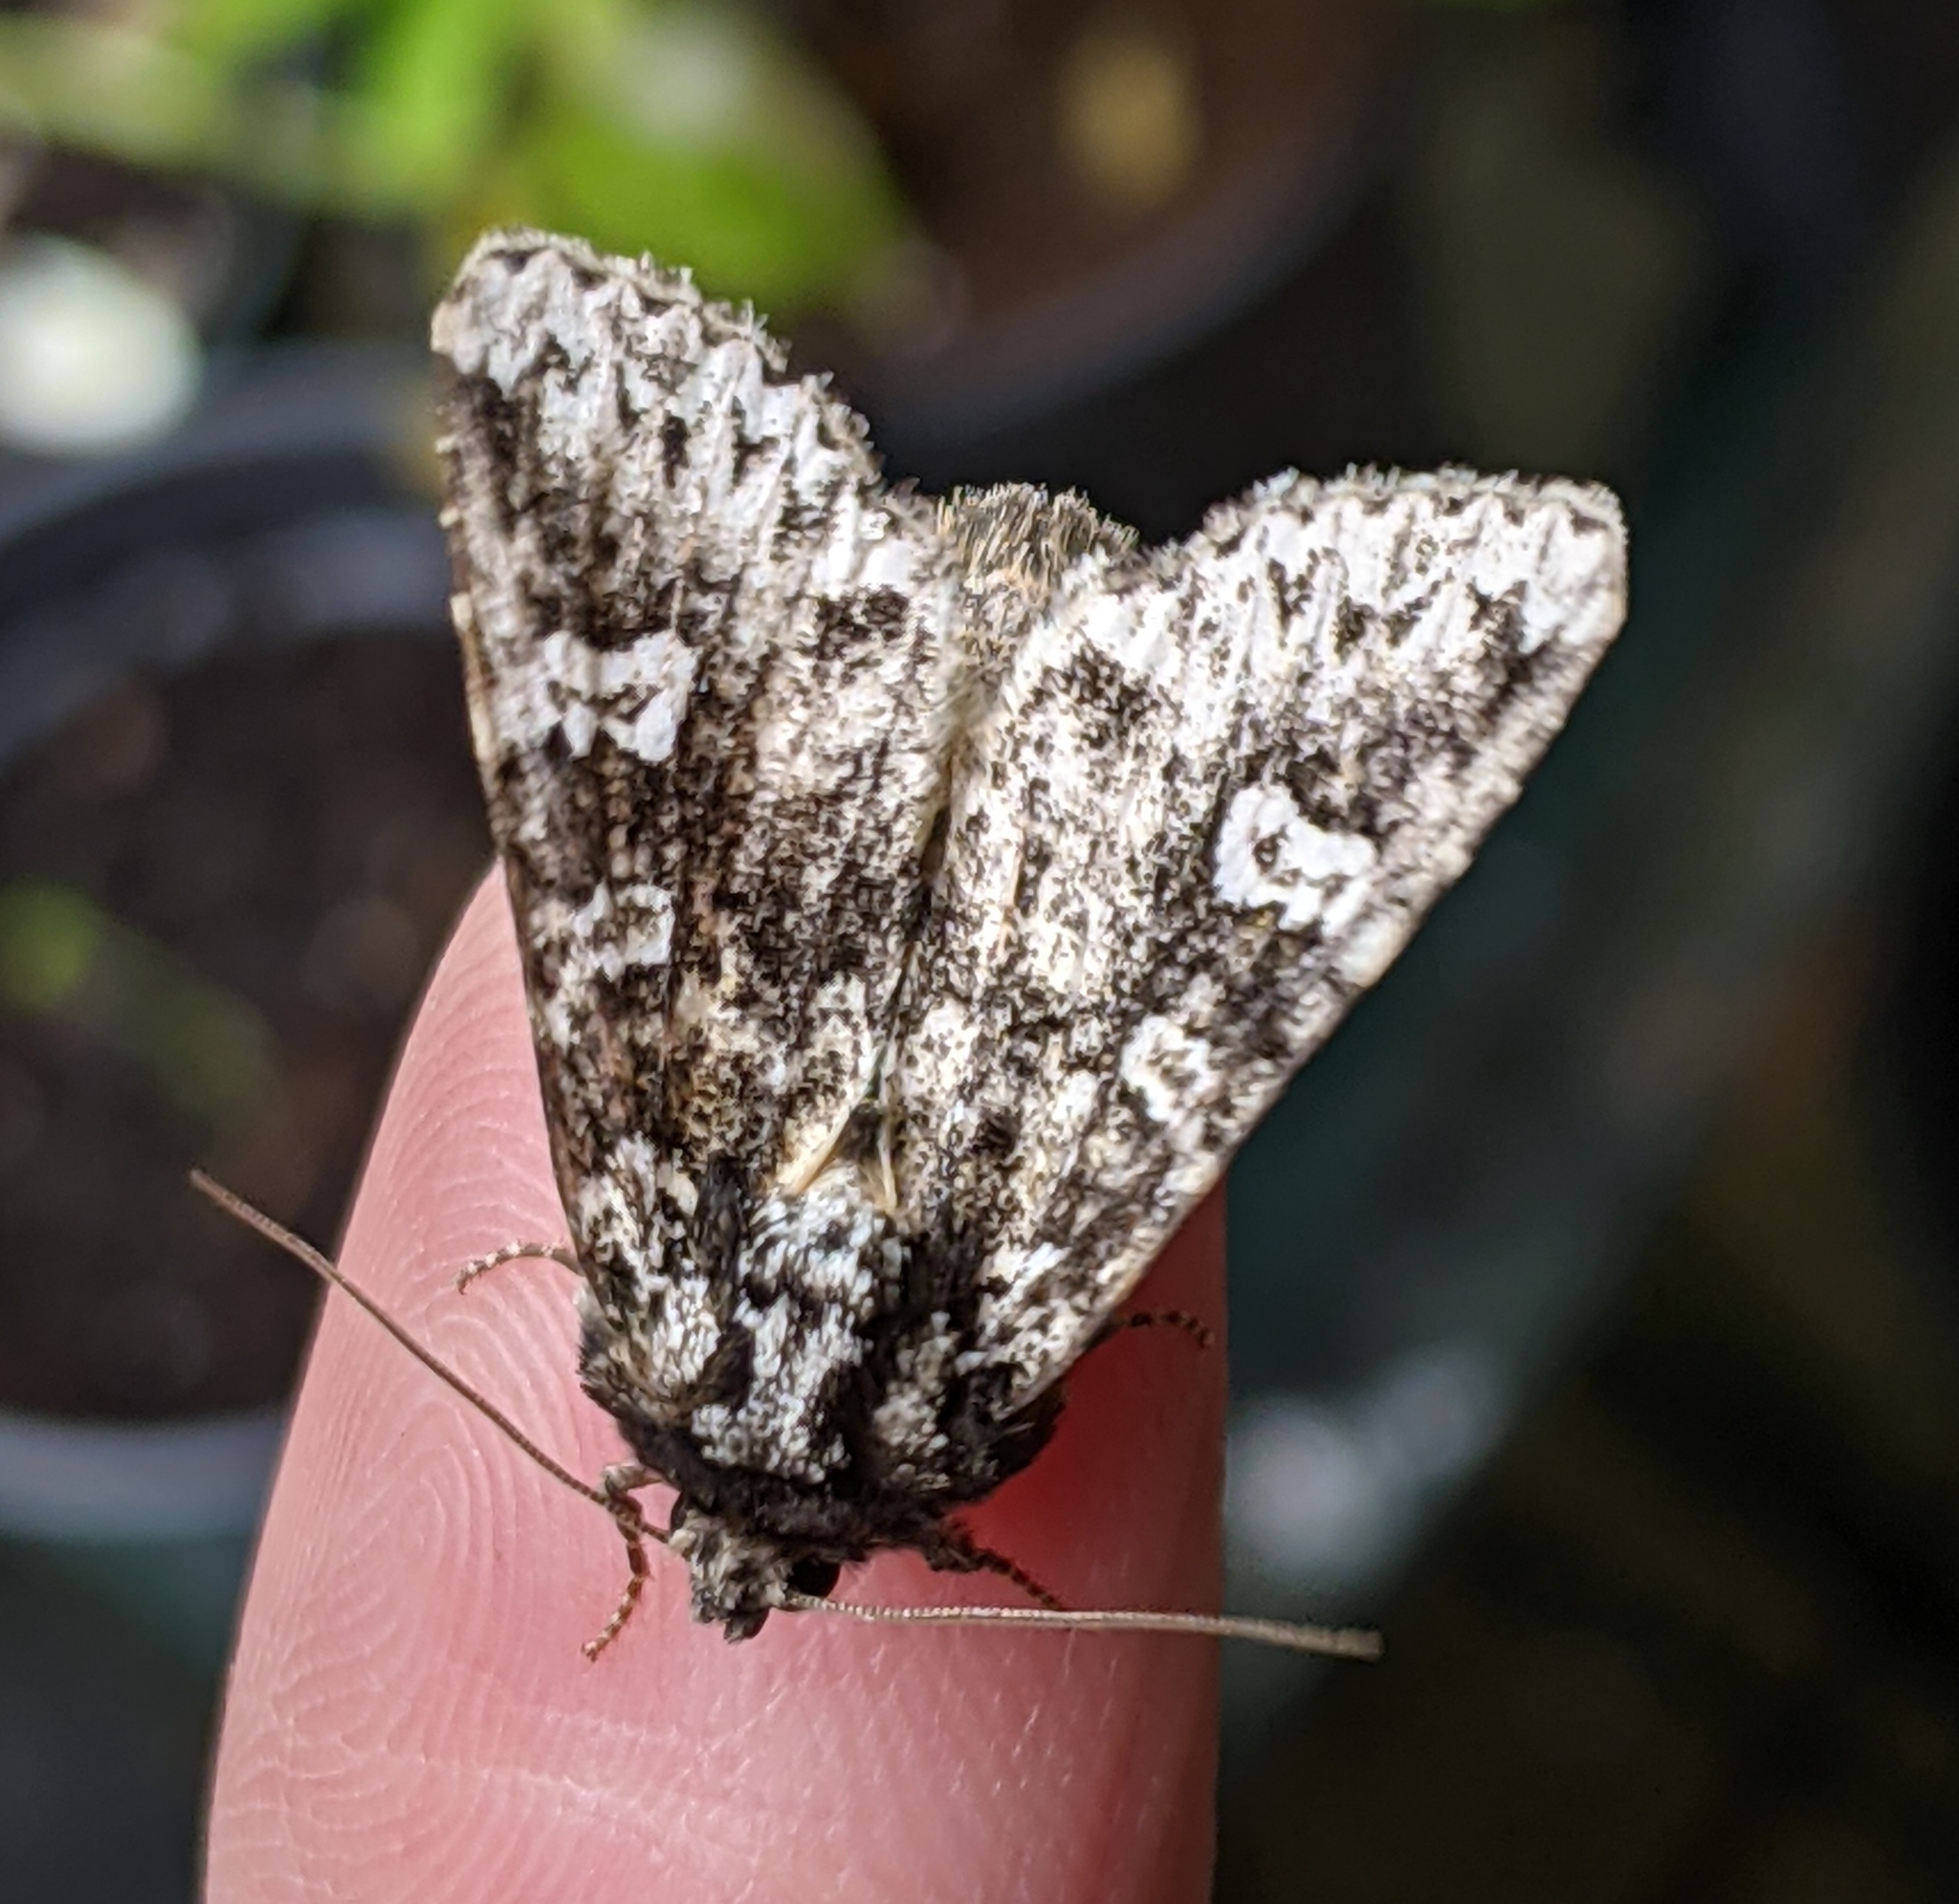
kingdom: Animalia
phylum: Arthropoda
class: Insecta
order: Lepidoptera
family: Noctuidae
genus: Melanchra
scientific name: Melanchra adjuncta
